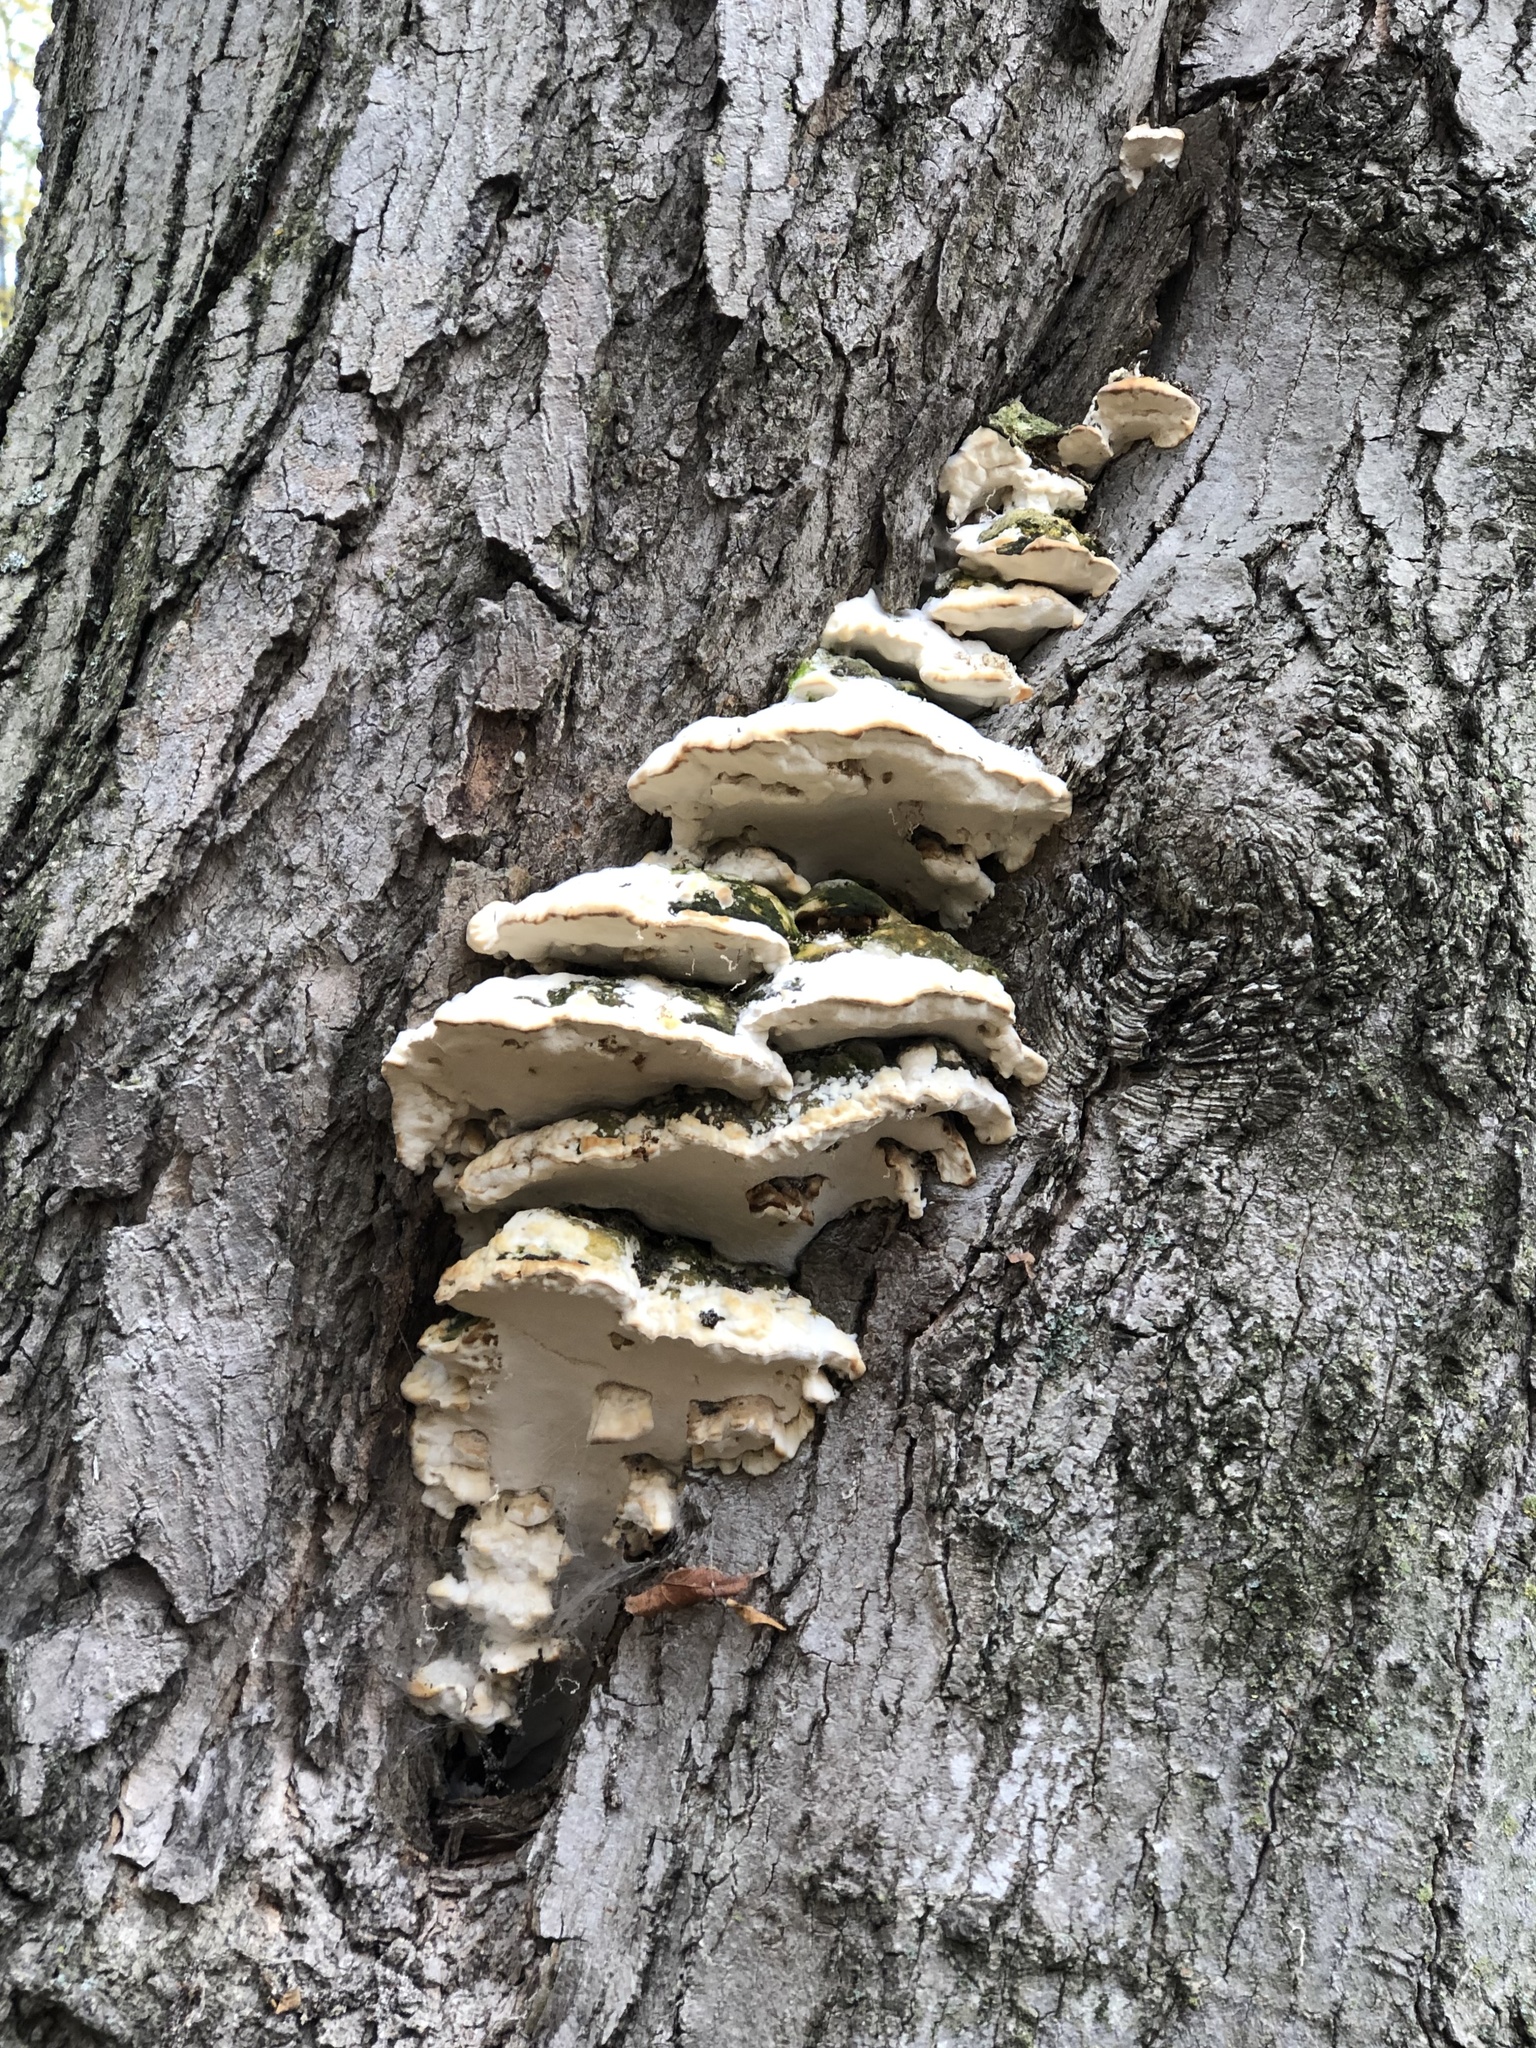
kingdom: Fungi
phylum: Basidiomycota
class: Agaricomycetes
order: Hymenochaetales
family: Oxyporaceae
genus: Oxyporus
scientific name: Oxyporus populinus
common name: Poplar bracket
